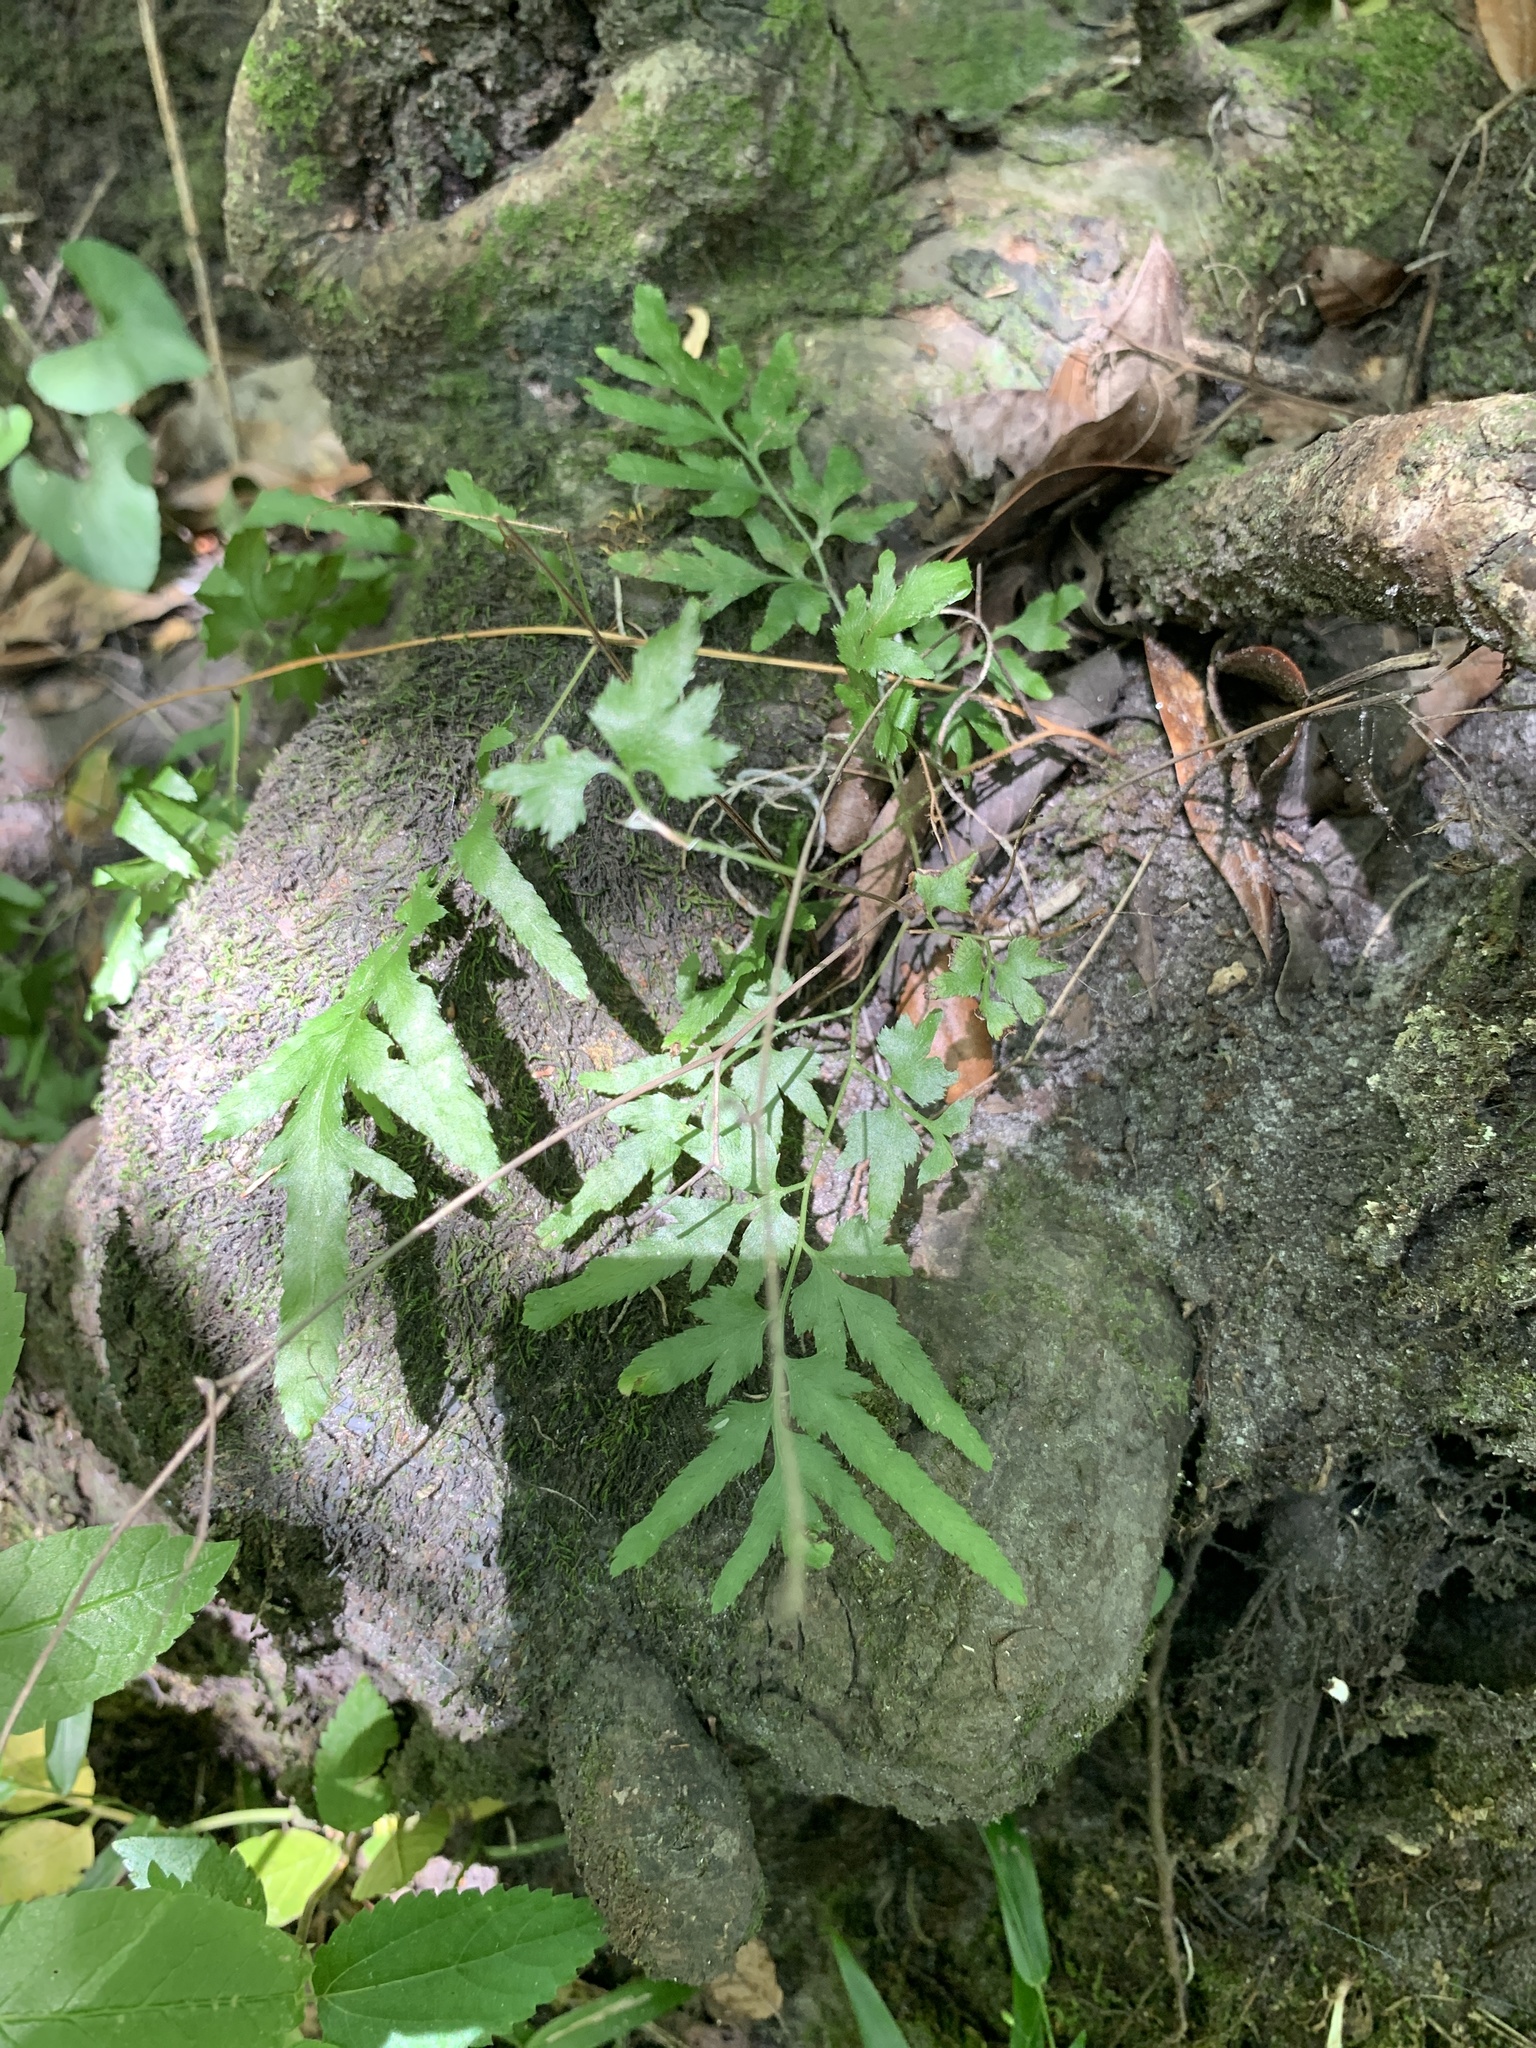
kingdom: Plantae
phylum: Tracheophyta
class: Polypodiopsida
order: Schizaeales
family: Lygodiaceae
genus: Lygodium
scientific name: Lygodium japonicum
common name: Japanese climbing fern
